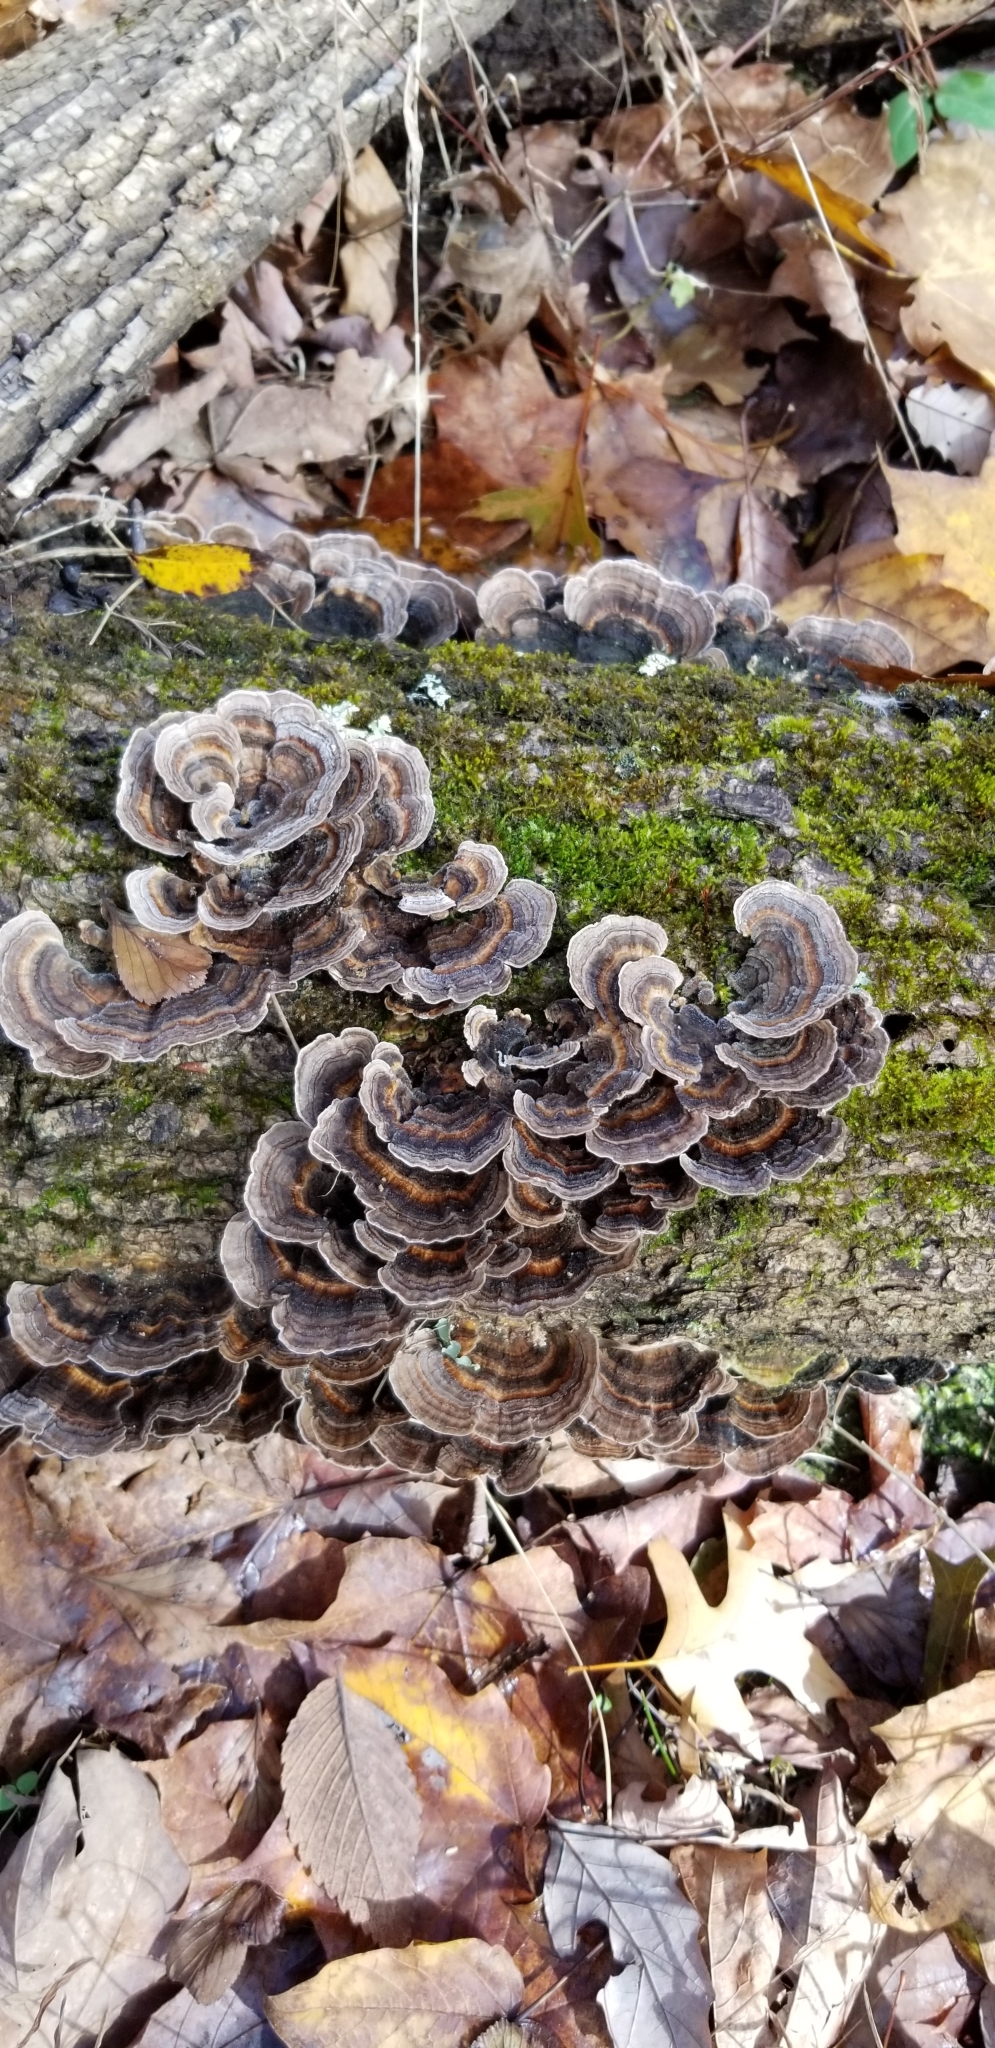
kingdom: Fungi
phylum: Basidiomycota
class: Agaricomycetes
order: Polyporales
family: Polyporaceae
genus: Trametes
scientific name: Trametes versicolor
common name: Turkeytail
